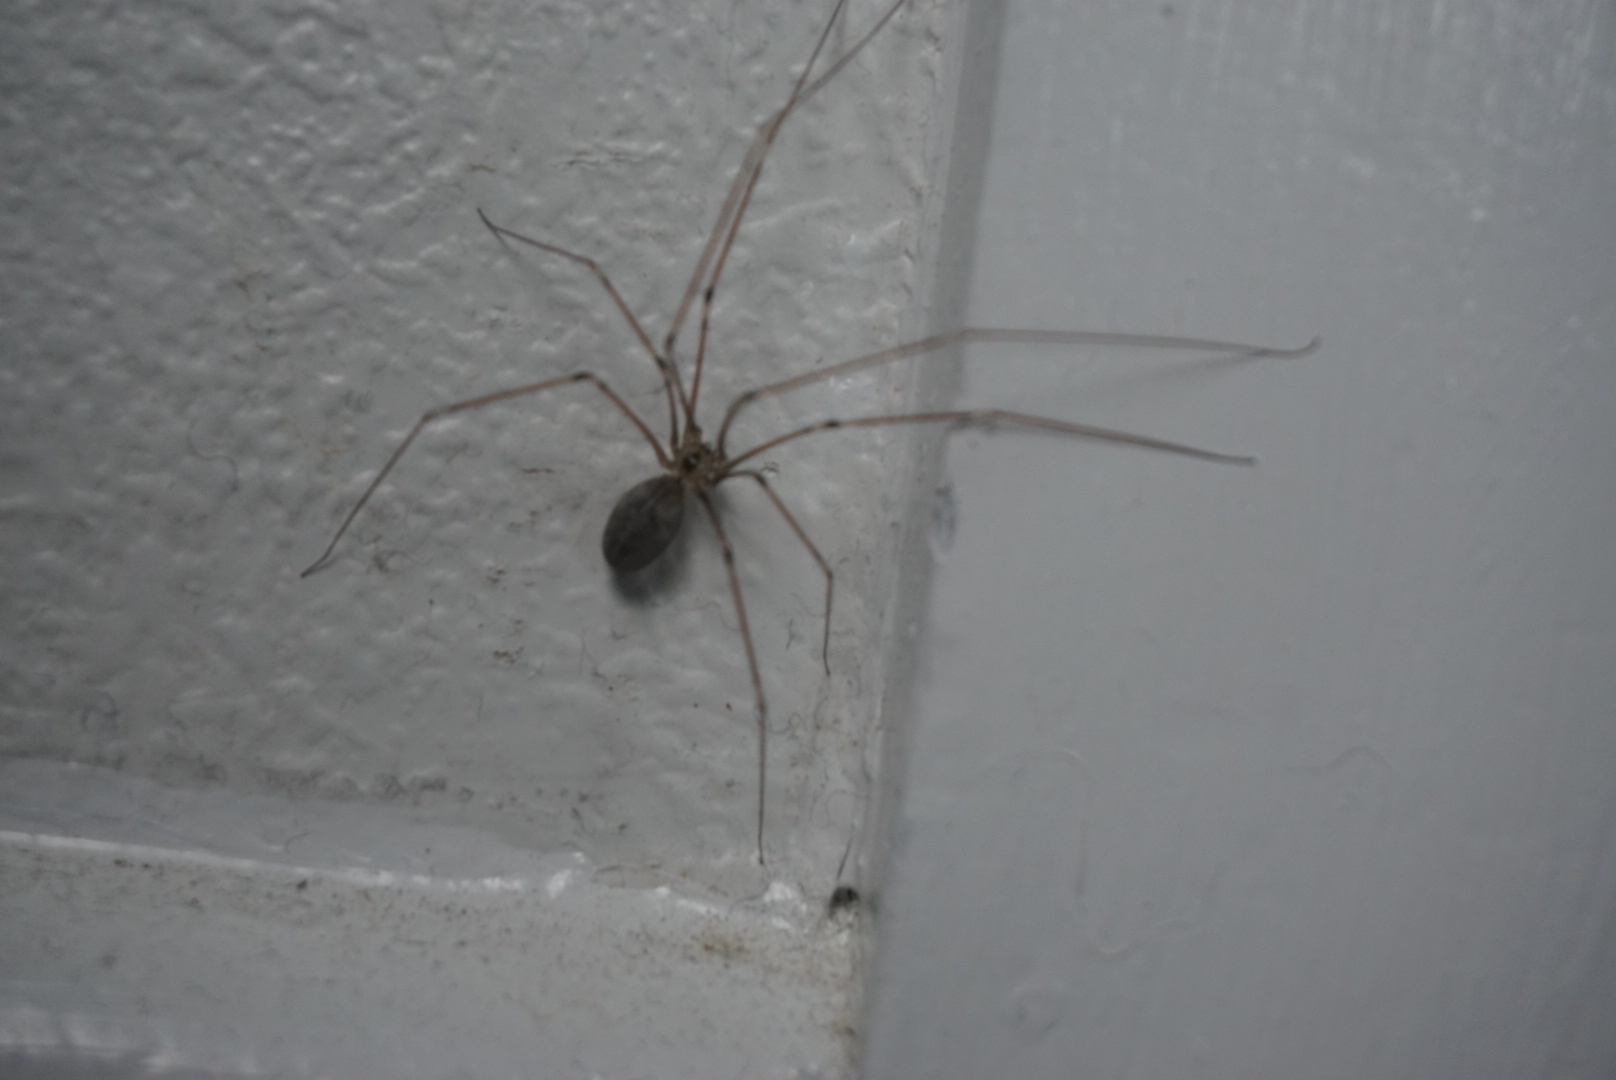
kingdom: Animalia
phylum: Arthropoda
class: Arachnida
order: Araneae
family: Pholcidae
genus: Pholcus
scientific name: Pholcus phalangioides
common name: Longbodied cellar spider
